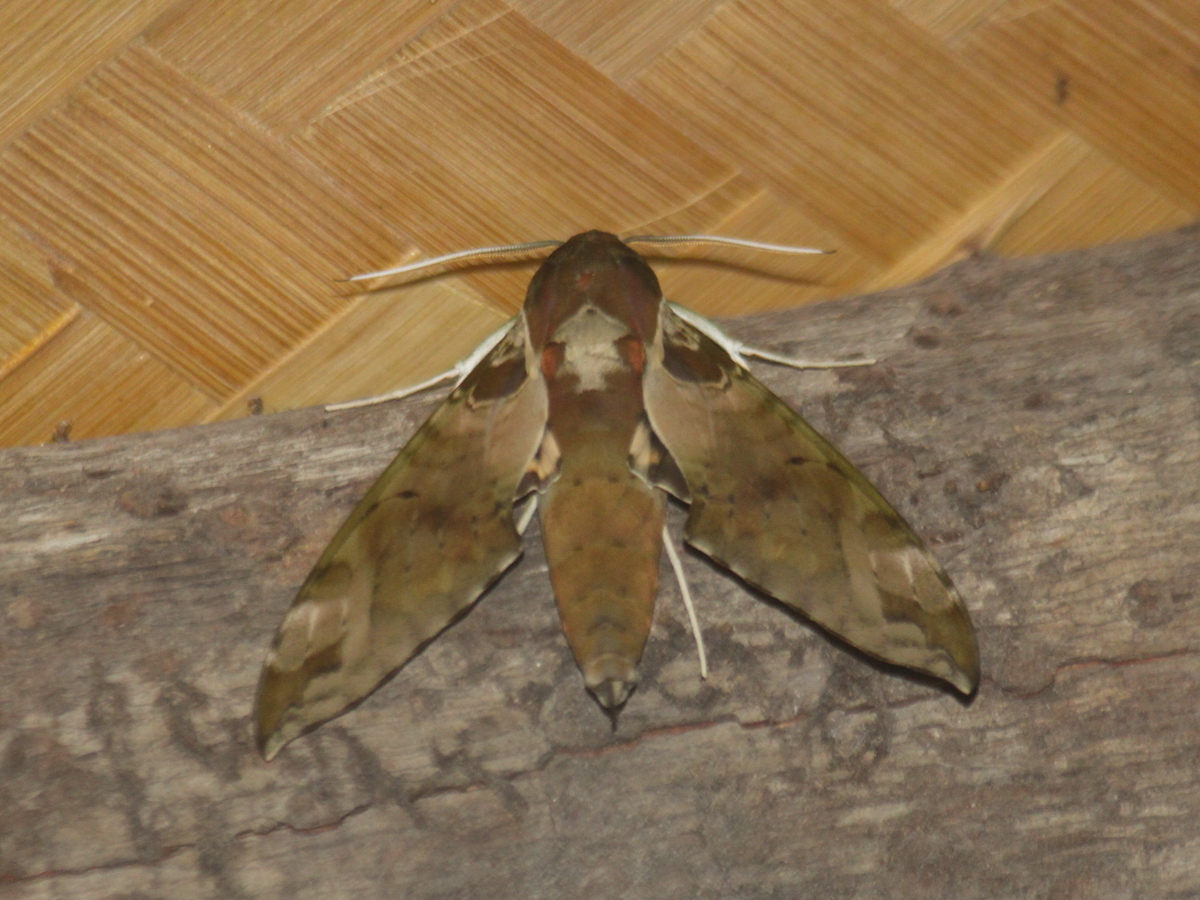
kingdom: Animalia
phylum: Arthropoda
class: Insecta
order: Lepidoptera
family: Sphingidae
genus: Cechenena
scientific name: Cechenena helops
